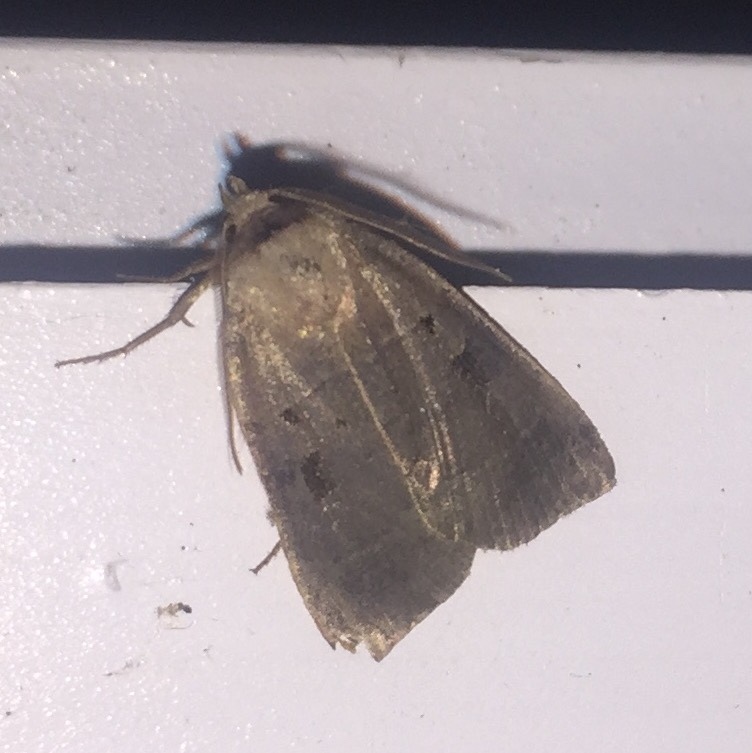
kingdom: Animalia
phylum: Arthropoda
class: Insecta
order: Lepidoptera
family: Noctuidae
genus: Agnorisma
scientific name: Agnorisma badinodis
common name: Pale-banded dart
